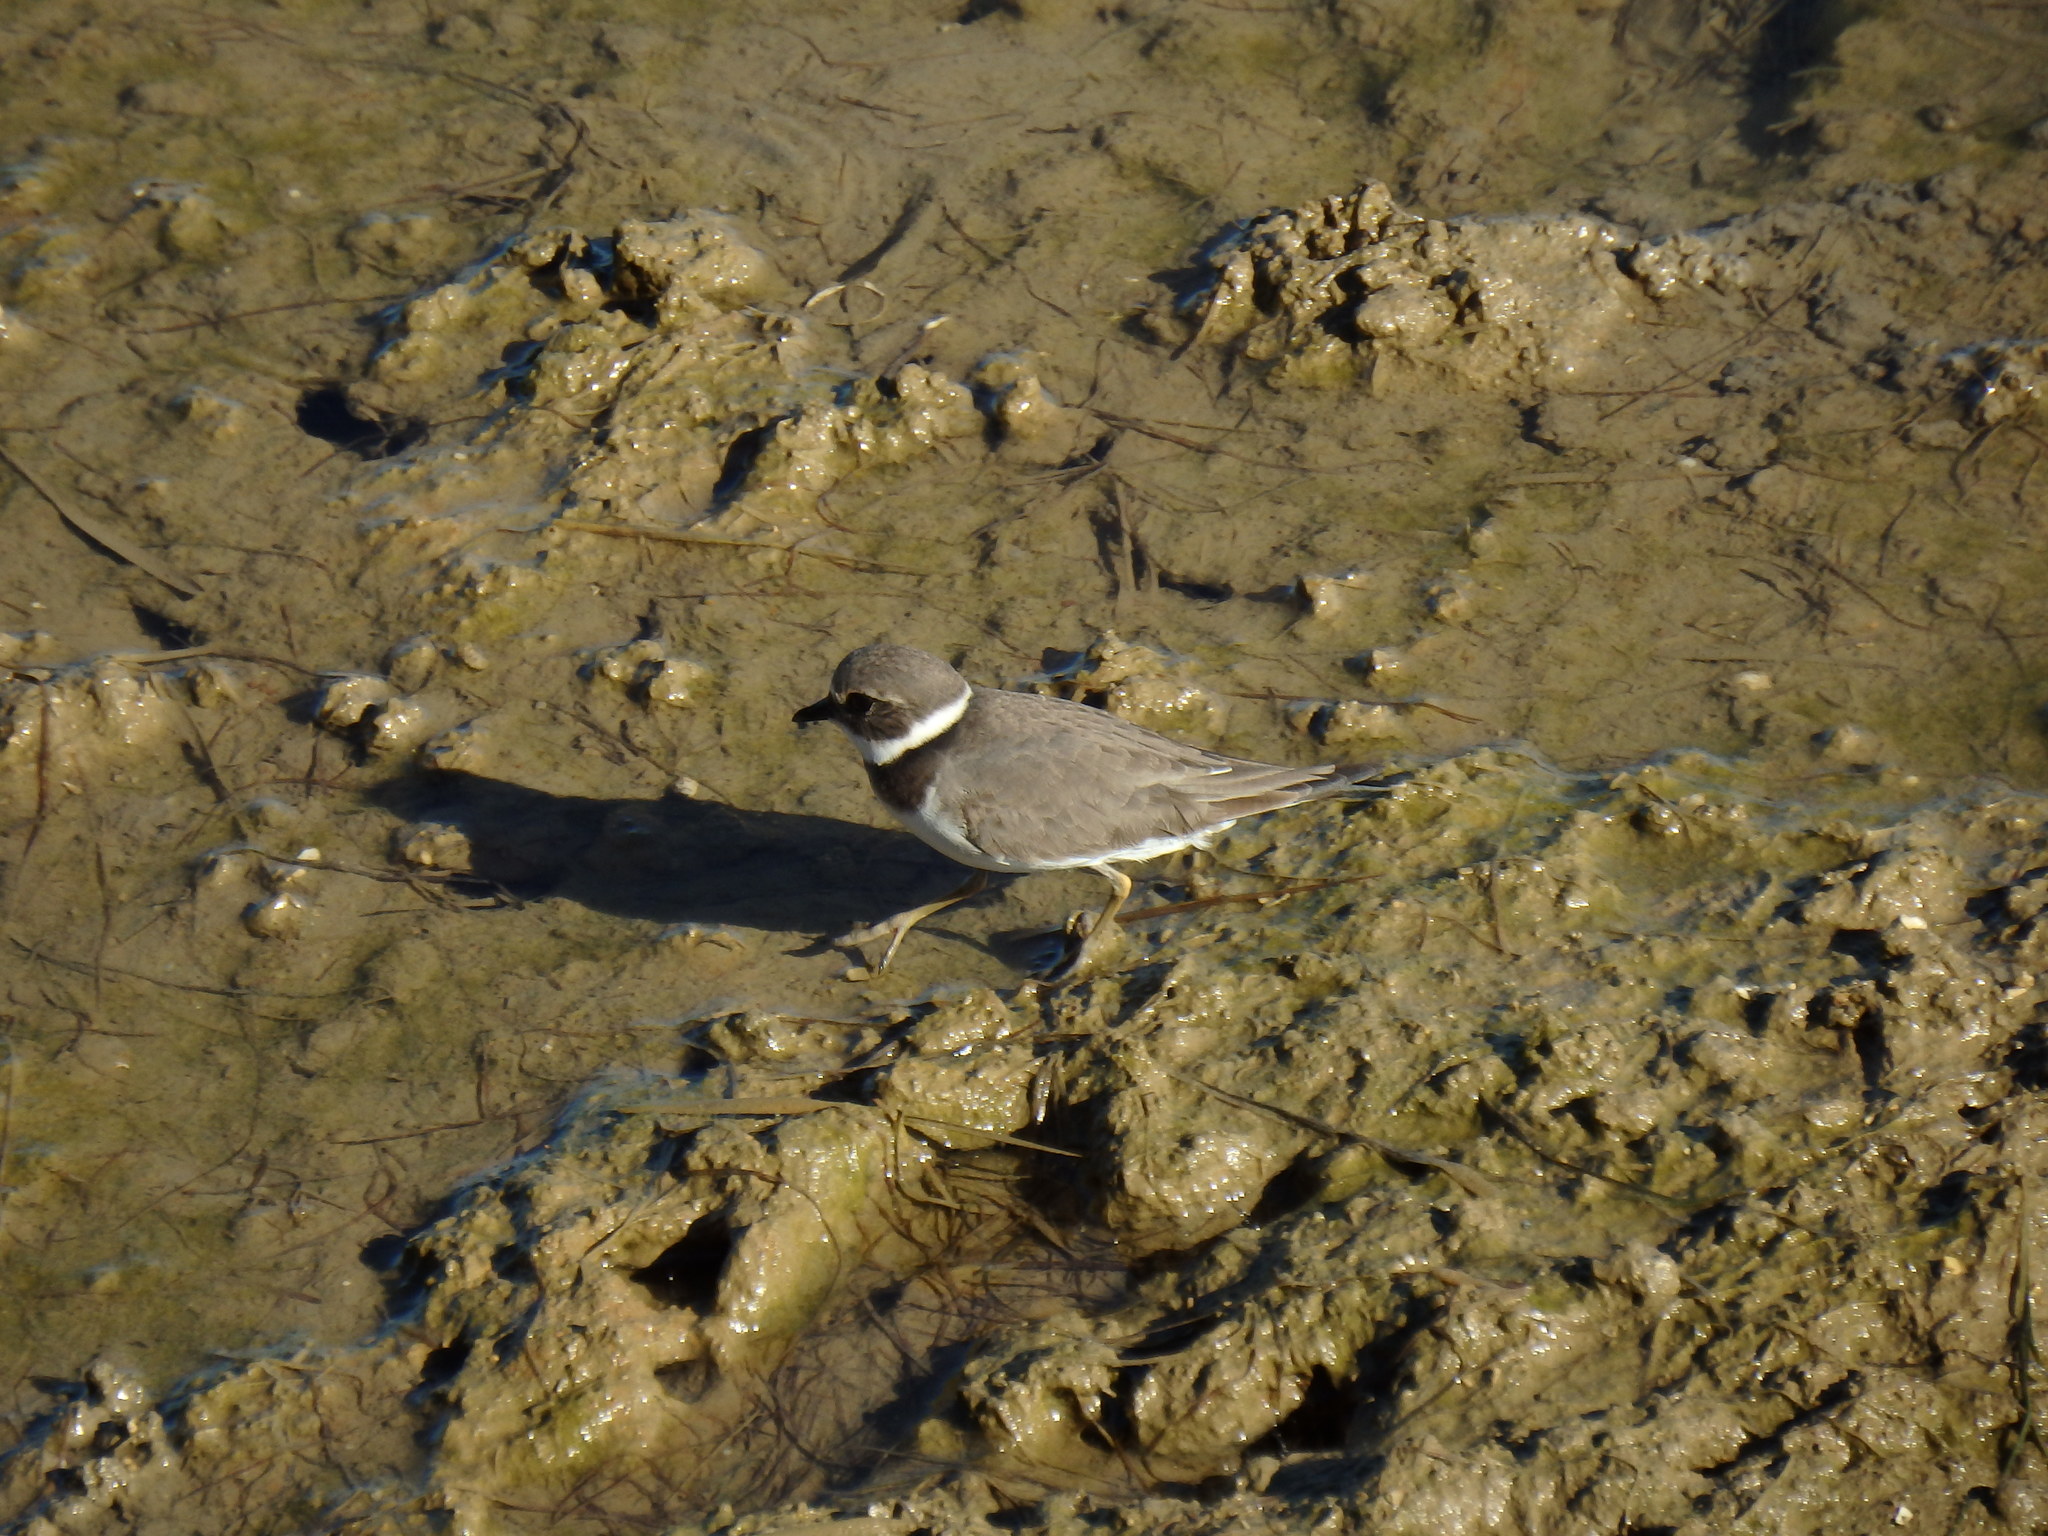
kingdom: Animalia
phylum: Chordata
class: Aves
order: Charadriiformes
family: Charadriidae
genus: Charadrius
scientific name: Charadrius hiaticula
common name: Common ringed plover
